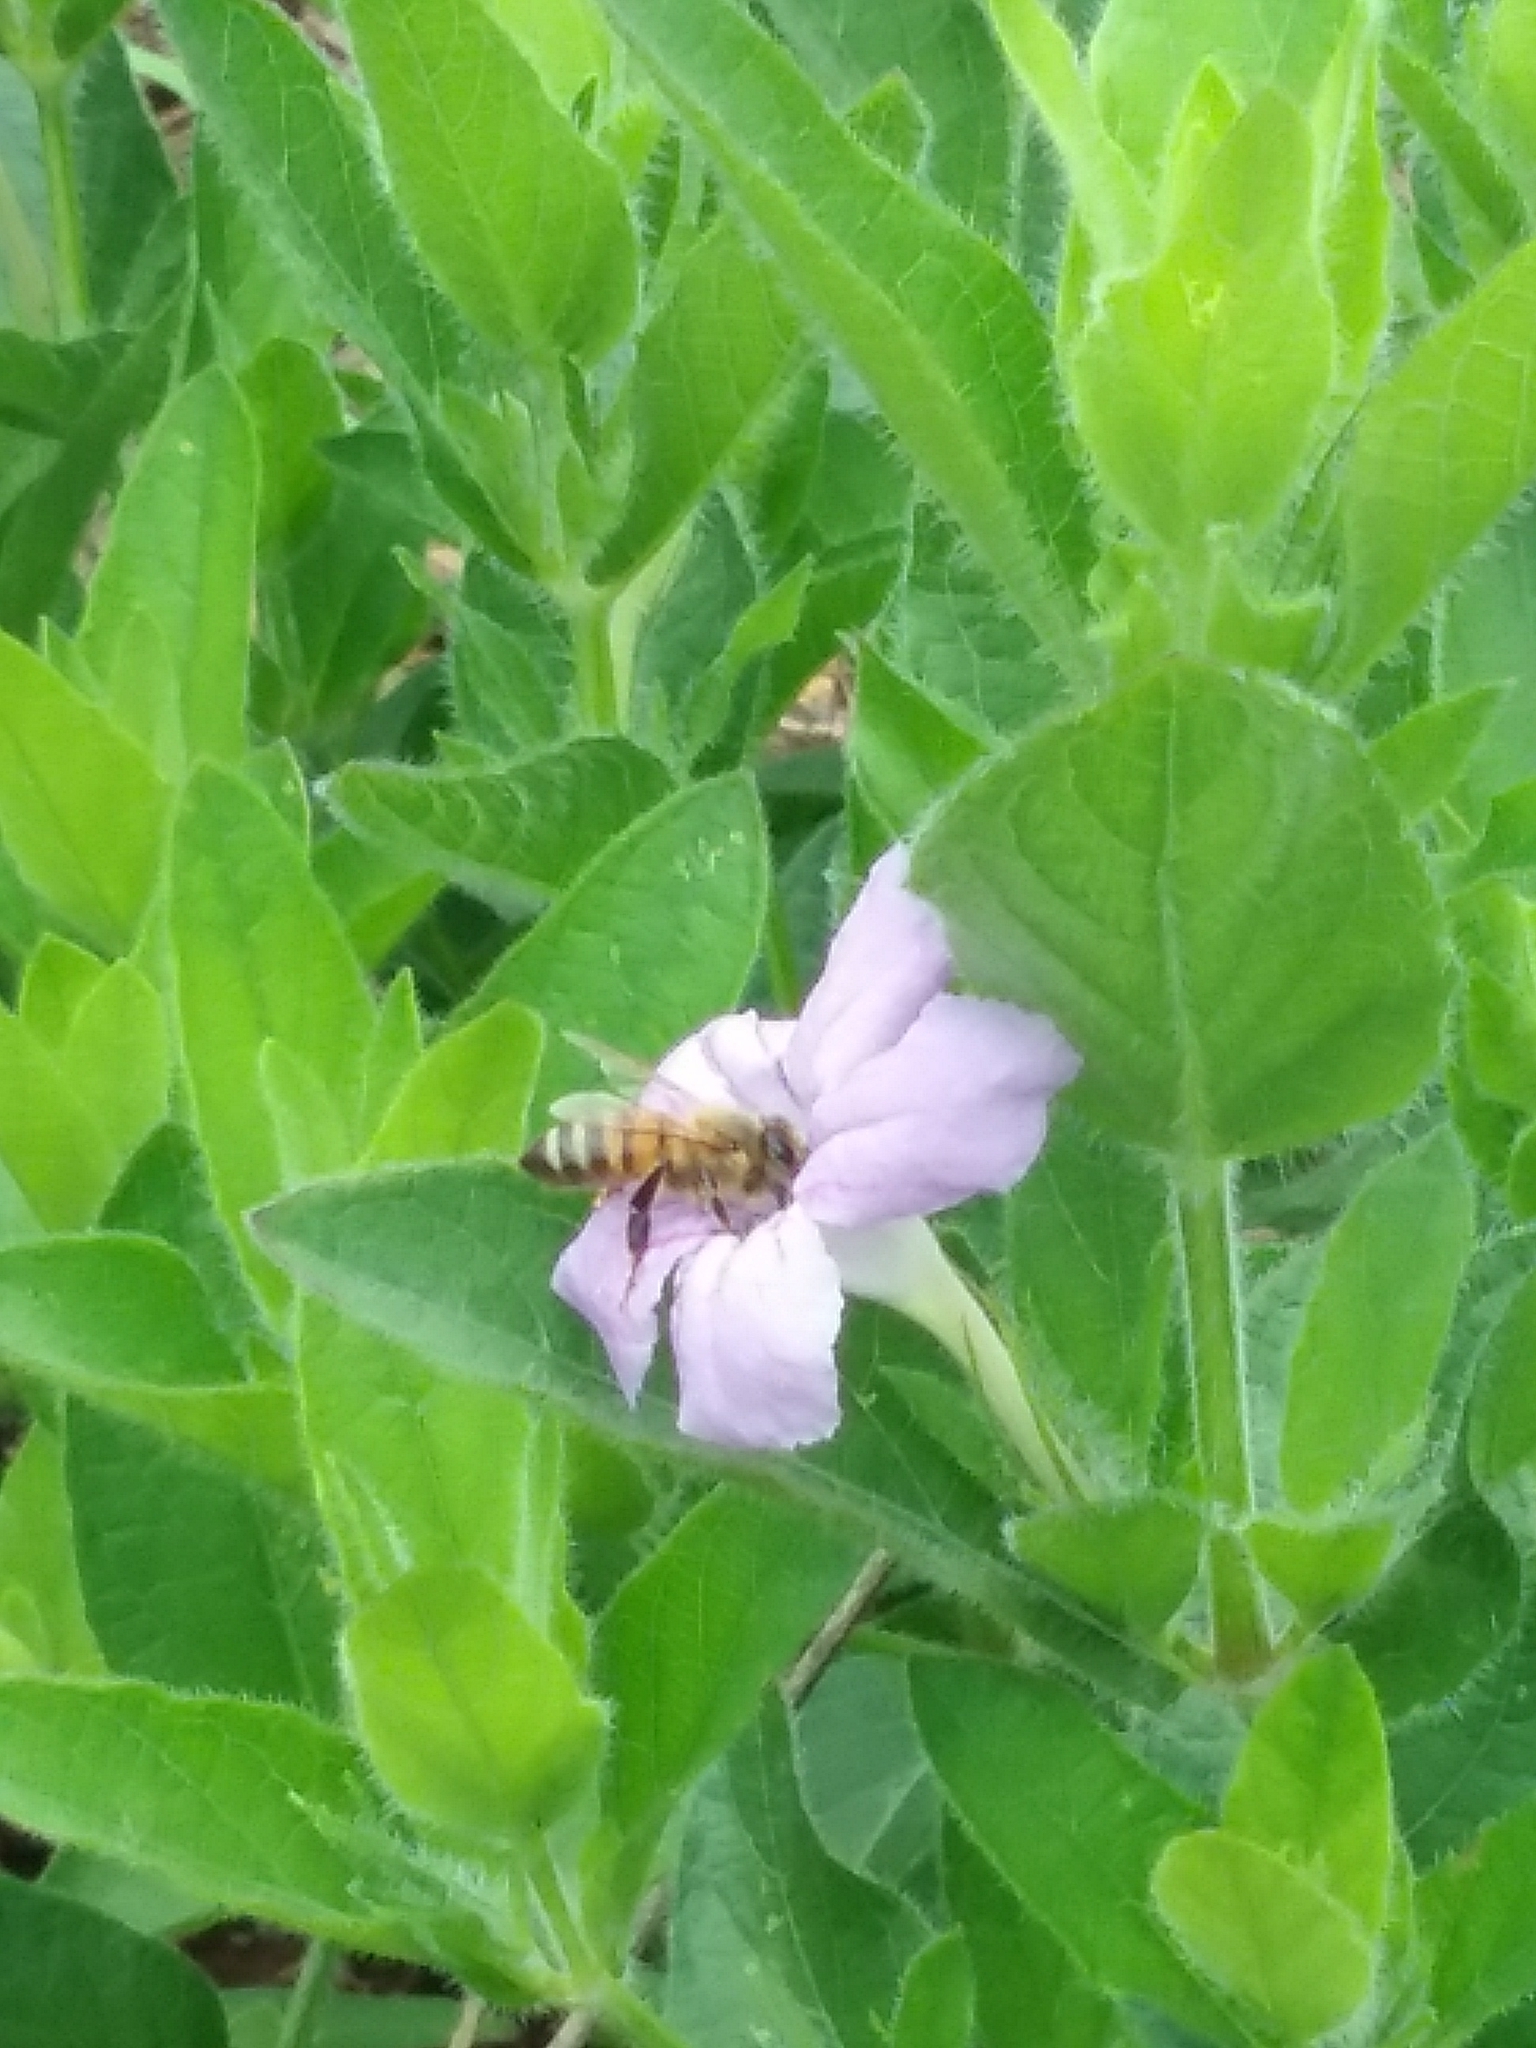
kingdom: Animalia
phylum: Arthropoda
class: Insecta
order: Hymenoptera
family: Apidae
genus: Apis
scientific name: Apis mellifera
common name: Honey bee
